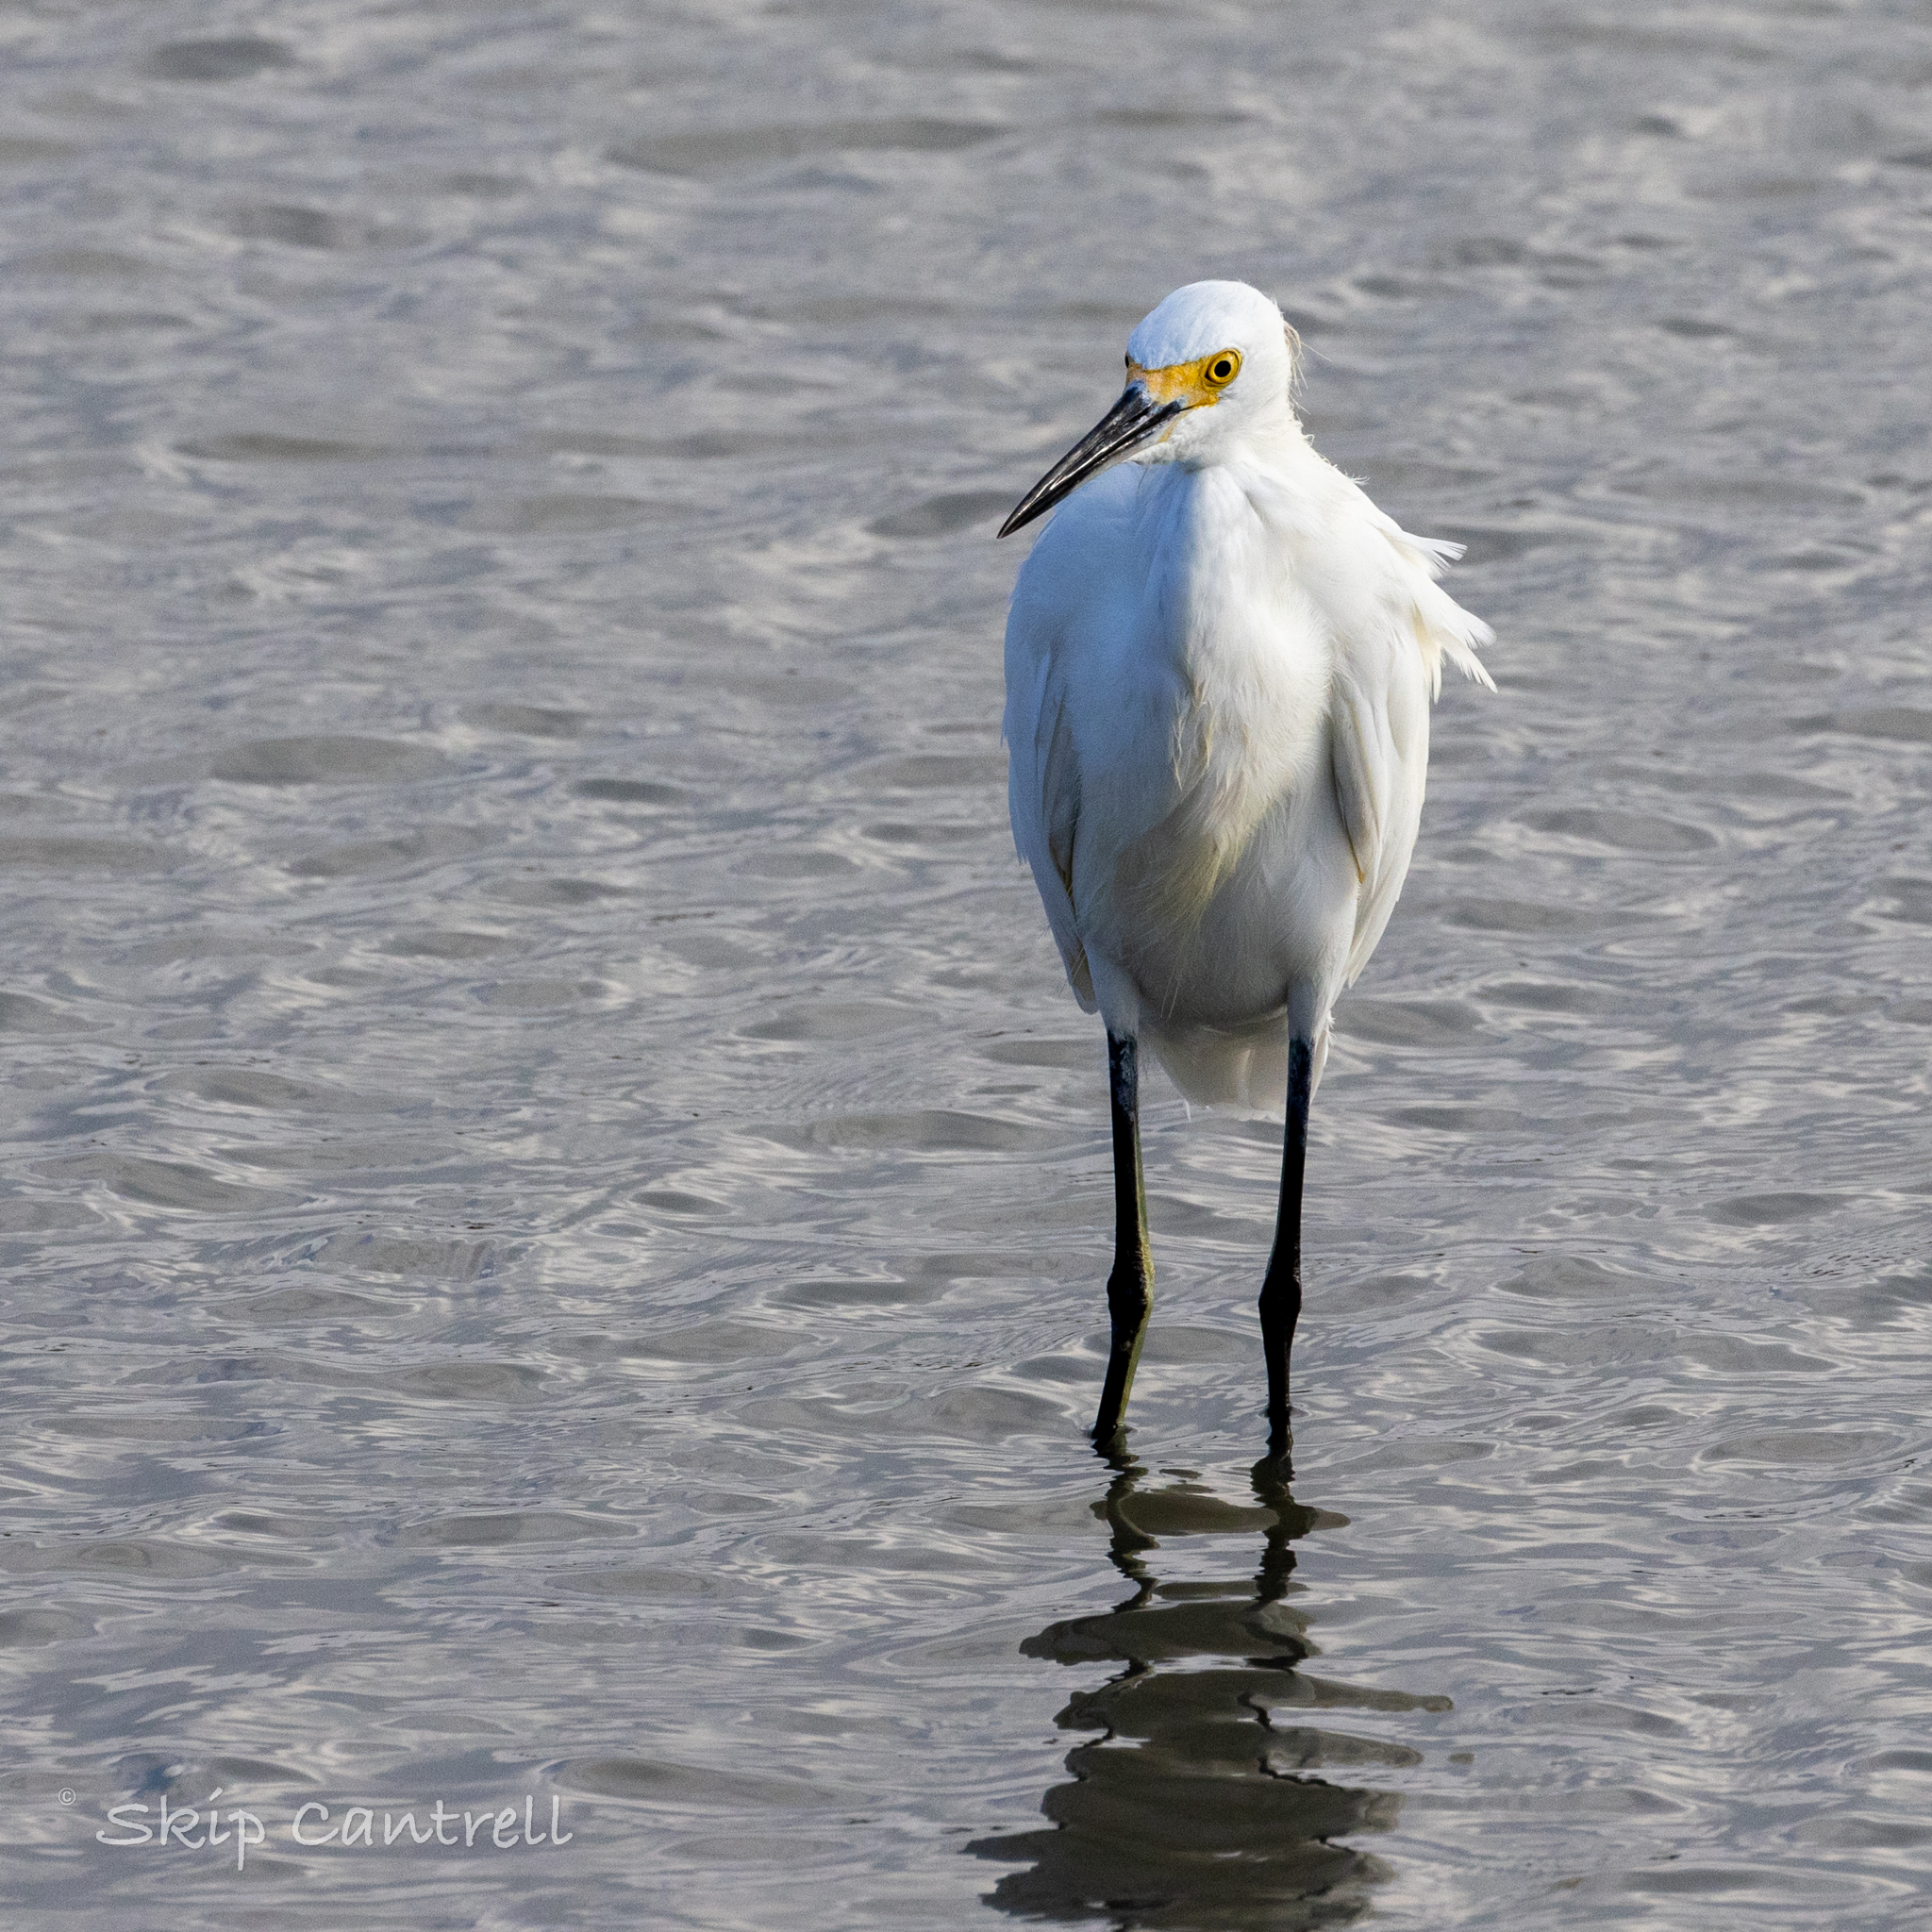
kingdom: Animalia
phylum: Chordata
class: Aves
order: Pelecaniformes
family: Ardeidae
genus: Egretta
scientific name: Egretta thula
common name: Snowy egret
